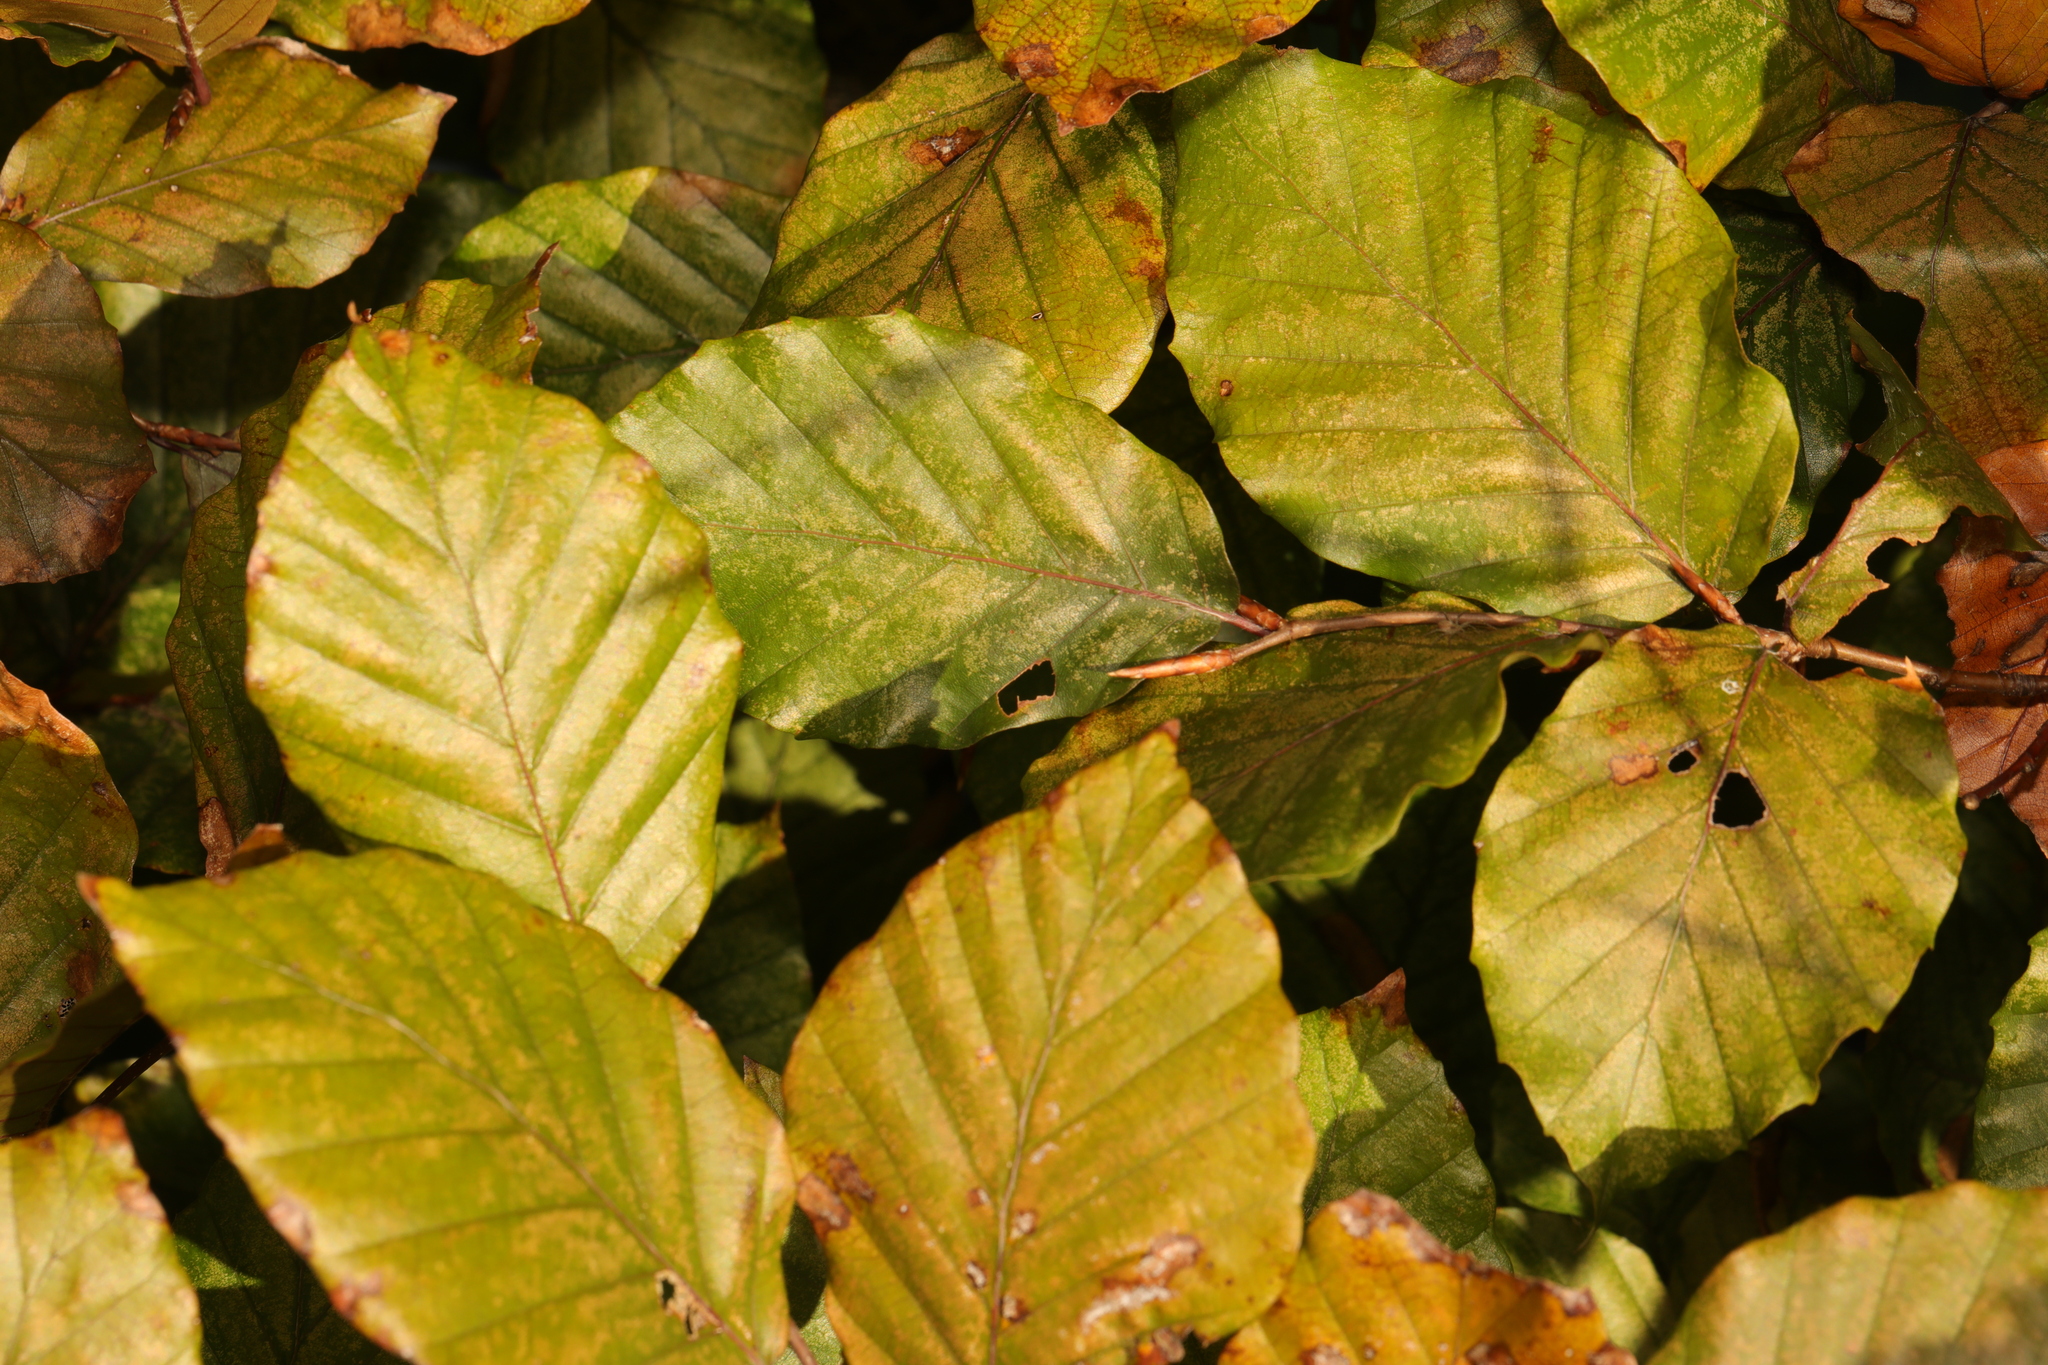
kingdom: Plantae
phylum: Tracheophyta
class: Magnoliopsida
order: Fagales
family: Fagaceae
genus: Fagus
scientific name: Fagus sylvatica
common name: Beech
